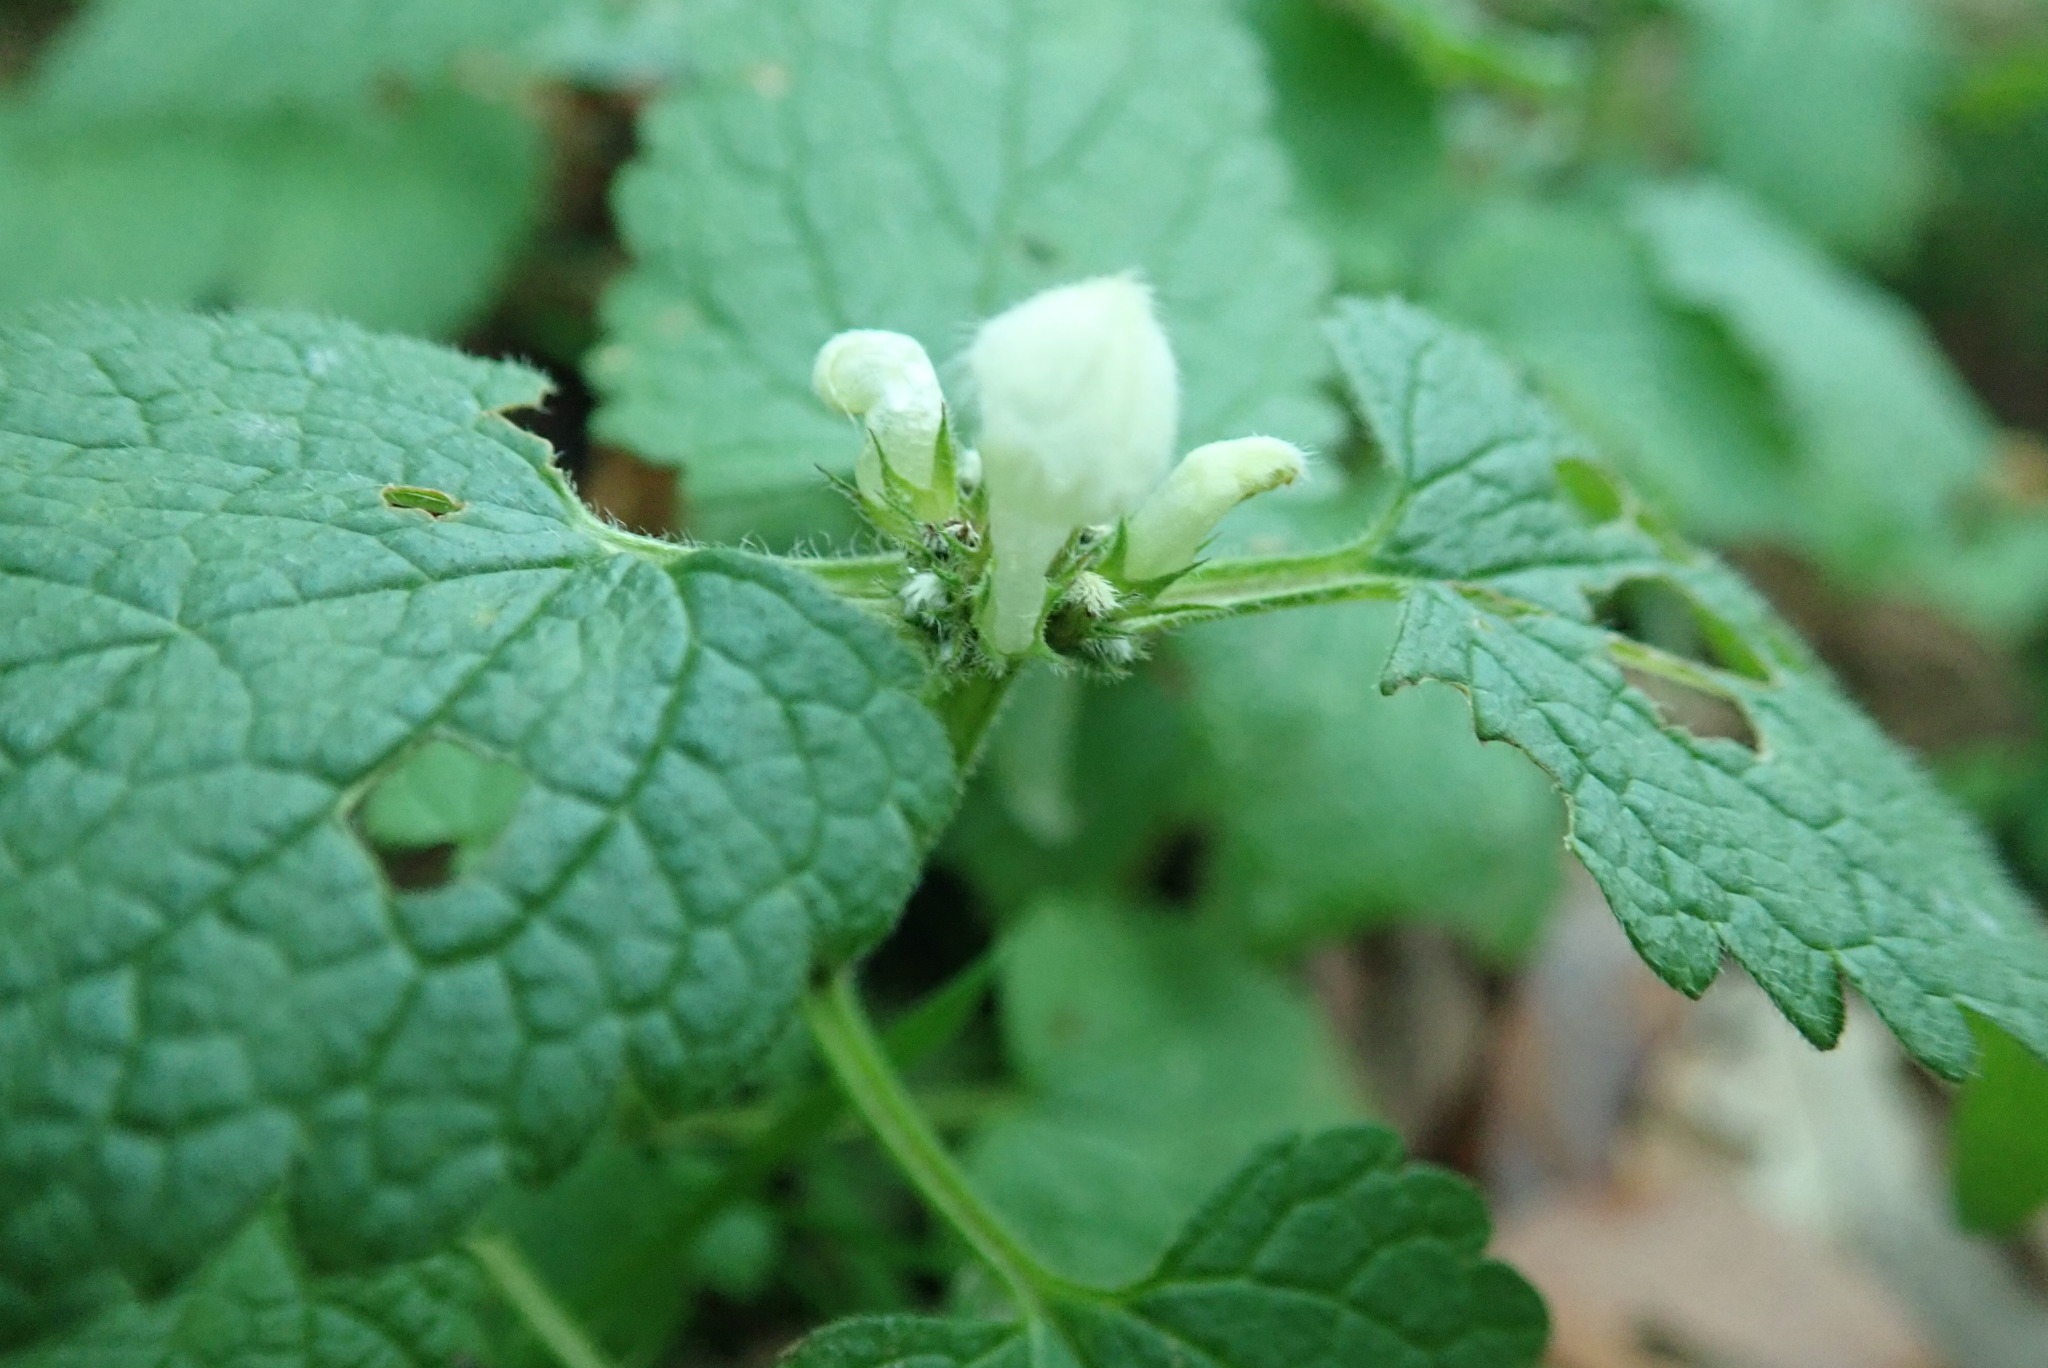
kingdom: Plantae
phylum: Tracheophyta
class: Magnoliopsida
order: Lamiales
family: Lamiaceae
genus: Lamium
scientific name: Lamium album
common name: White dead-nettle
